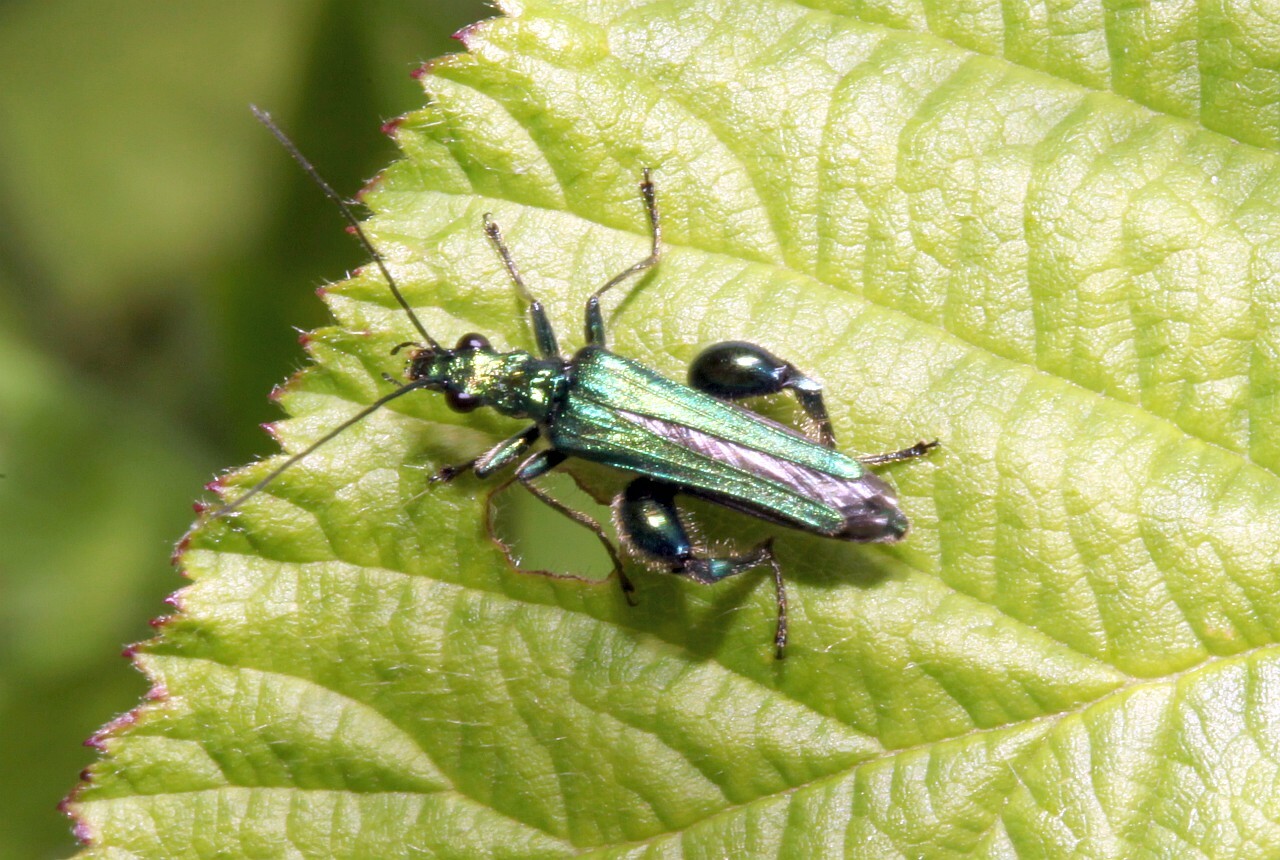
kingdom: Animalia
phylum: Arthropoda
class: Insecta
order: Coleoptera
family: Oedemeridae
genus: Oedemera
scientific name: Oedemera nobilis
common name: Swollen-thighed beetle
